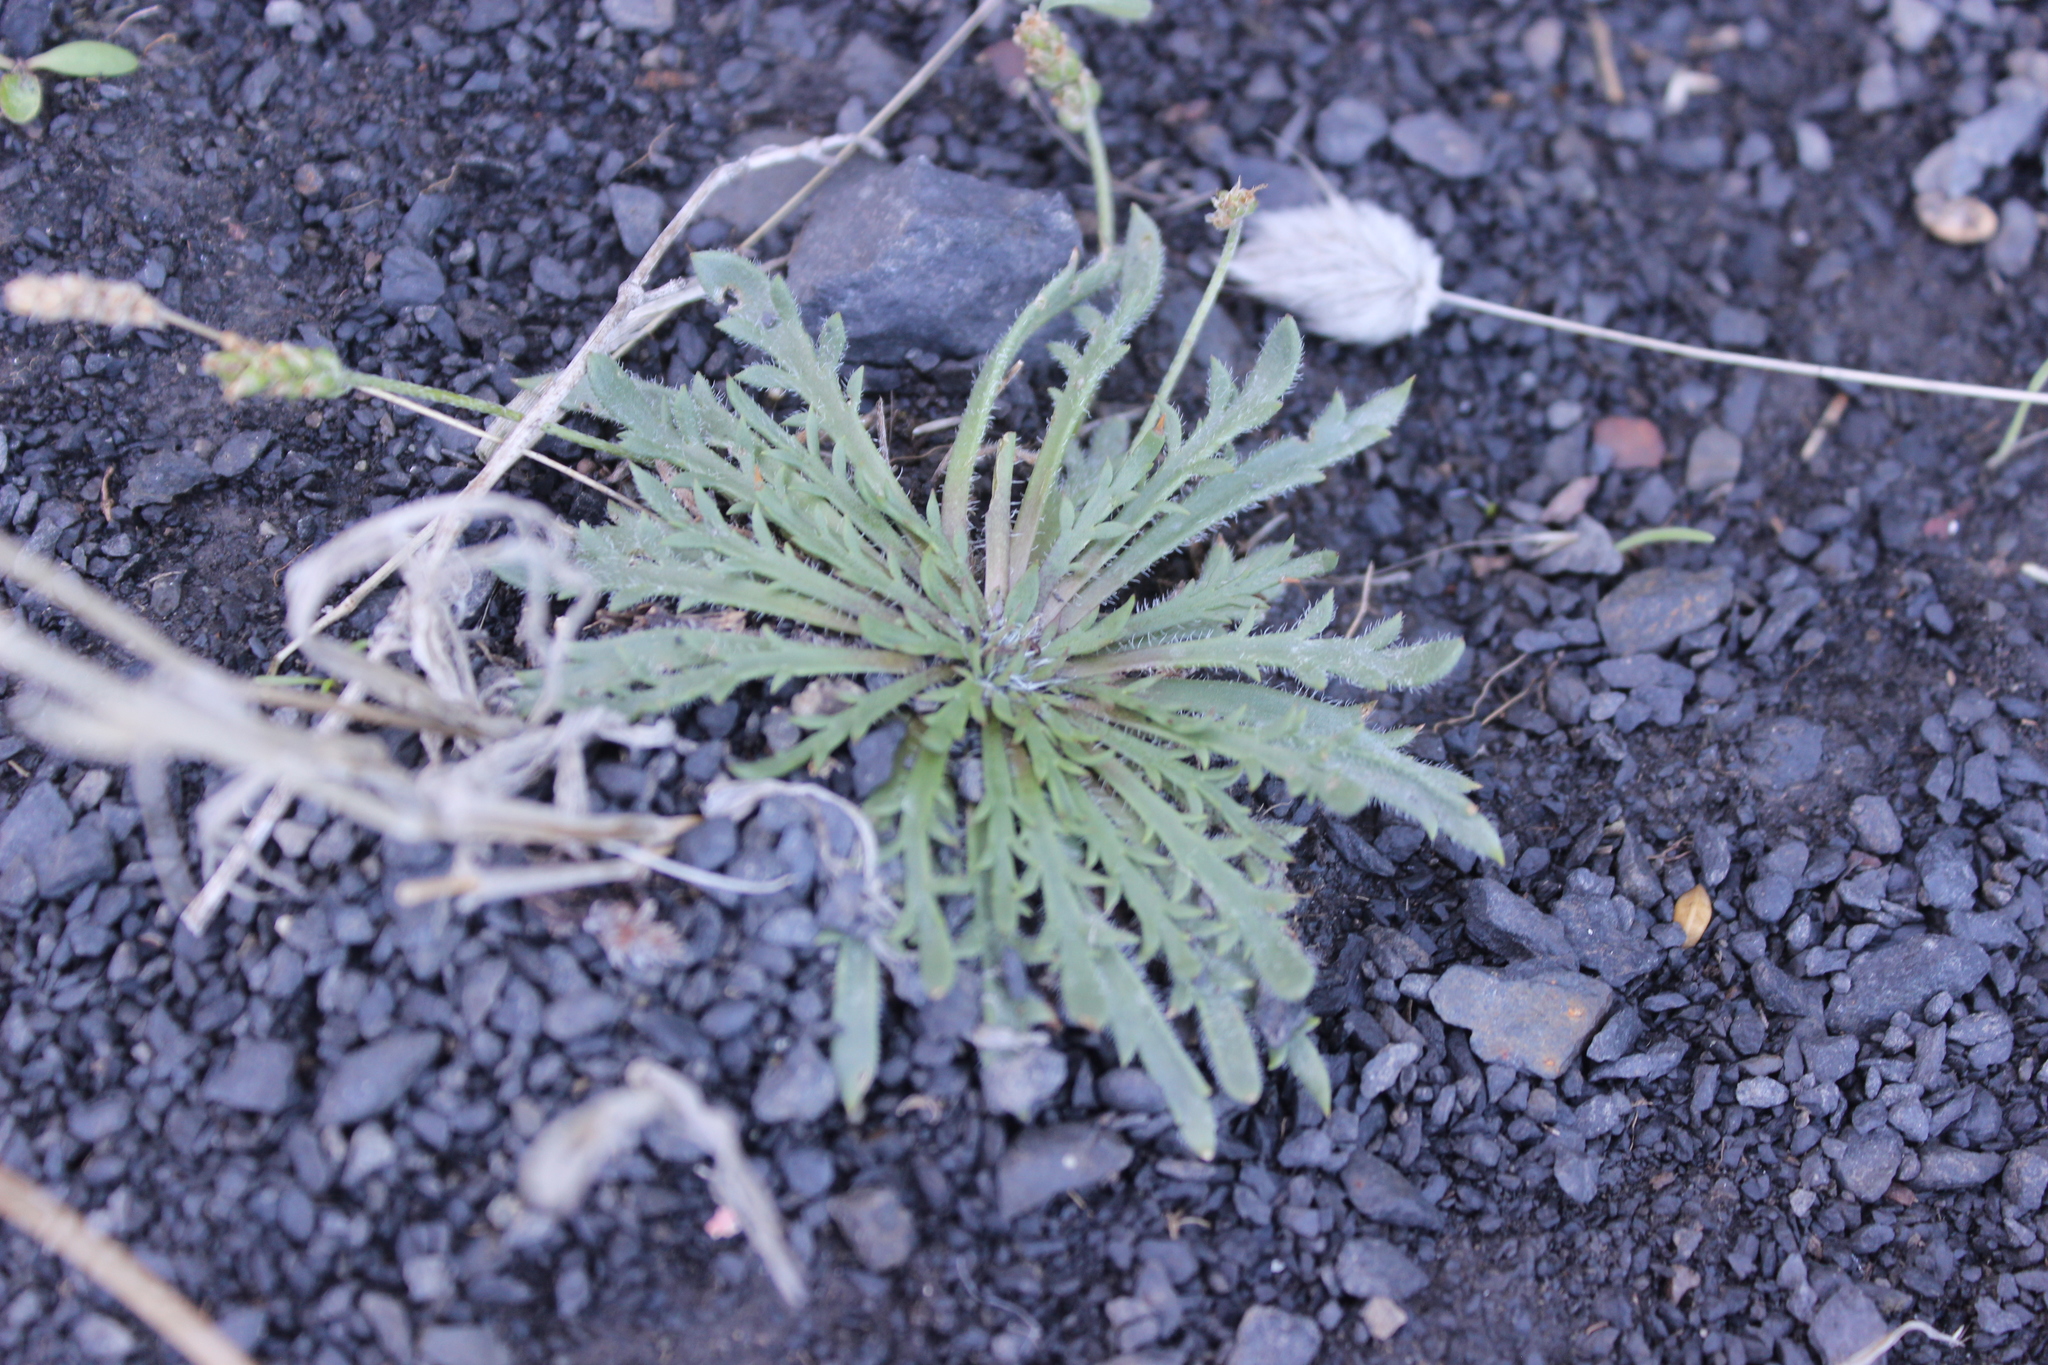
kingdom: Plantae
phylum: Tracheophyta
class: Magnoliopsida
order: Lamiales
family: Plantaginaceae
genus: Plantago
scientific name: Plantago coronopus
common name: Buck's-horn plantain
